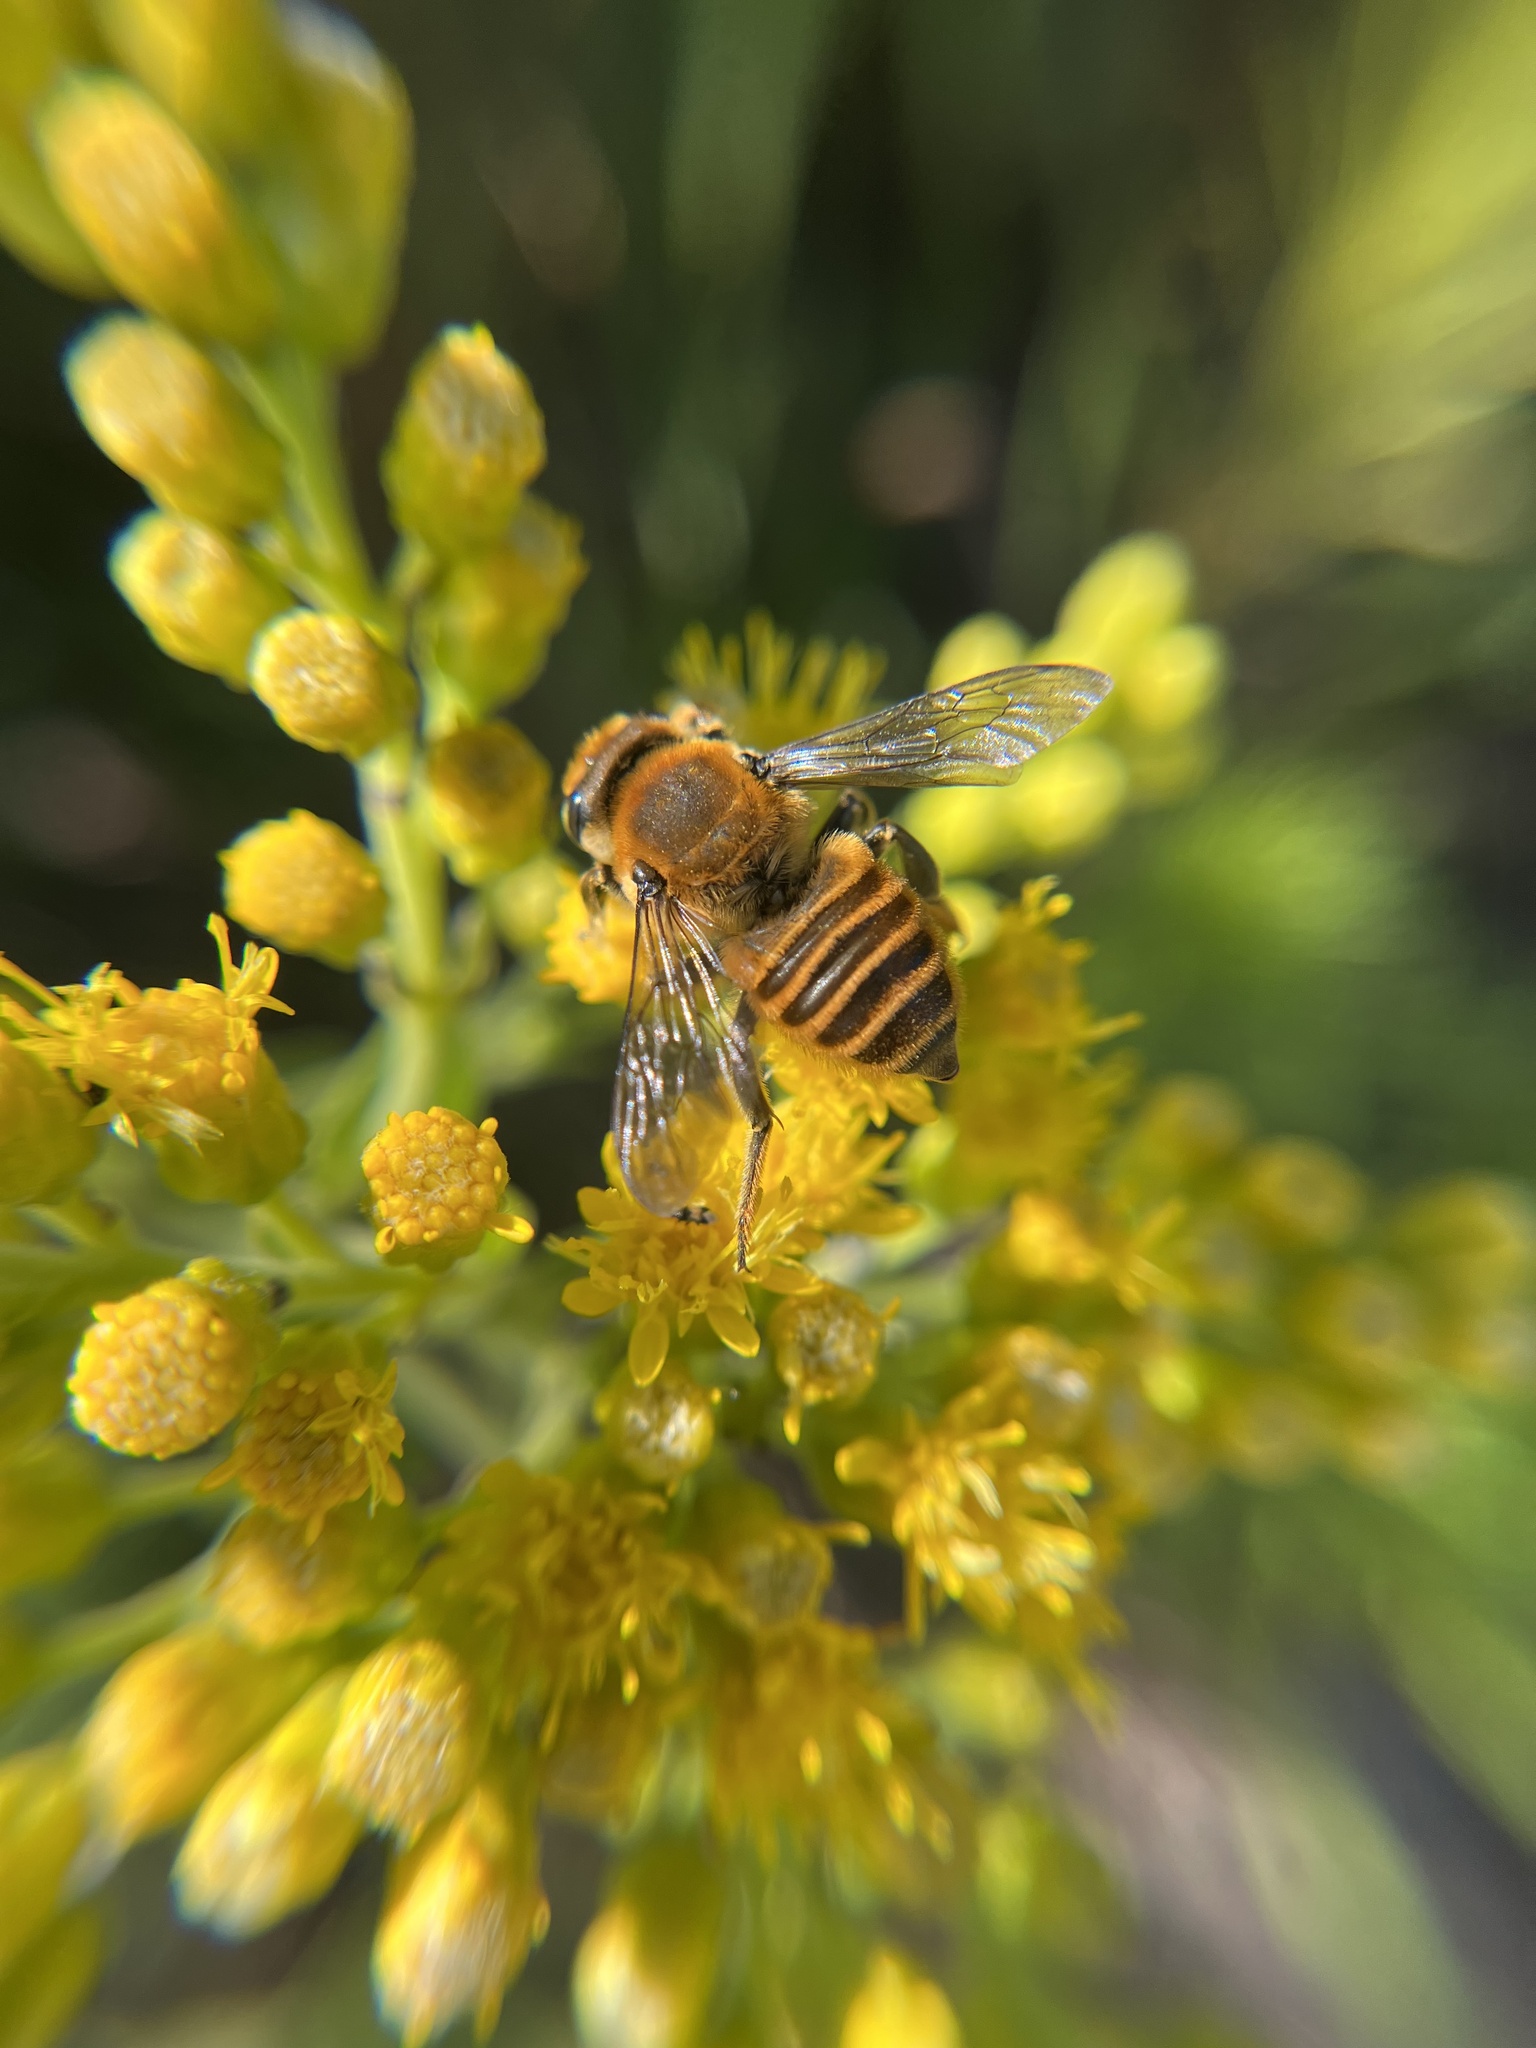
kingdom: Animalia
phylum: Arthropoda
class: Insecta
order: Hymenoptera
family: Megachilidae
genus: Megachile
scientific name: Megachile fortis
